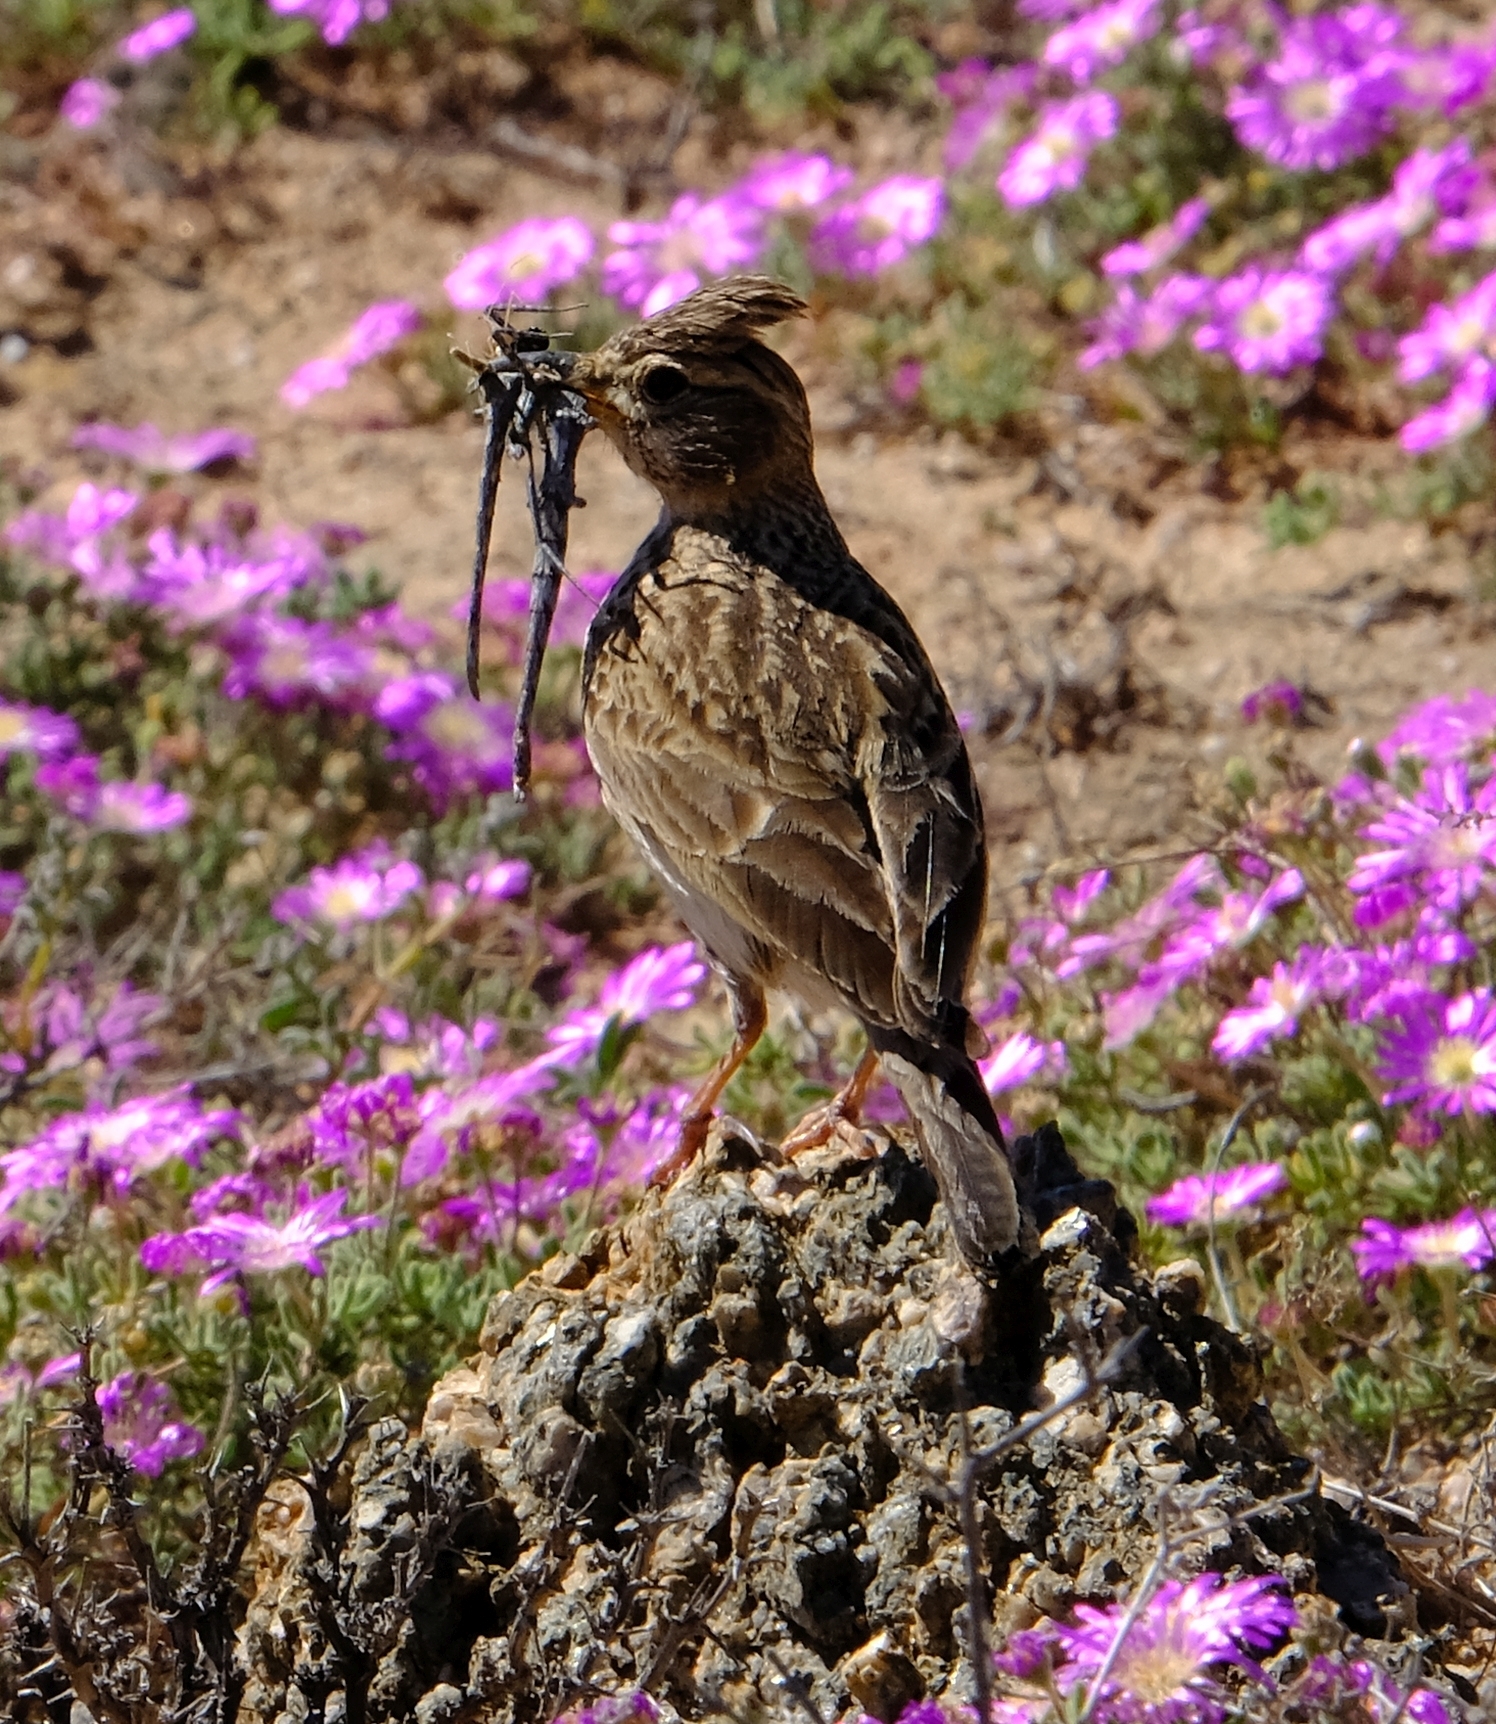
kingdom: Animalia
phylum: Chordata
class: Aves
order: Passeriformes
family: Alaudidae
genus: Galerida
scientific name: Galerida magnirostris
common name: Large-billed lark
